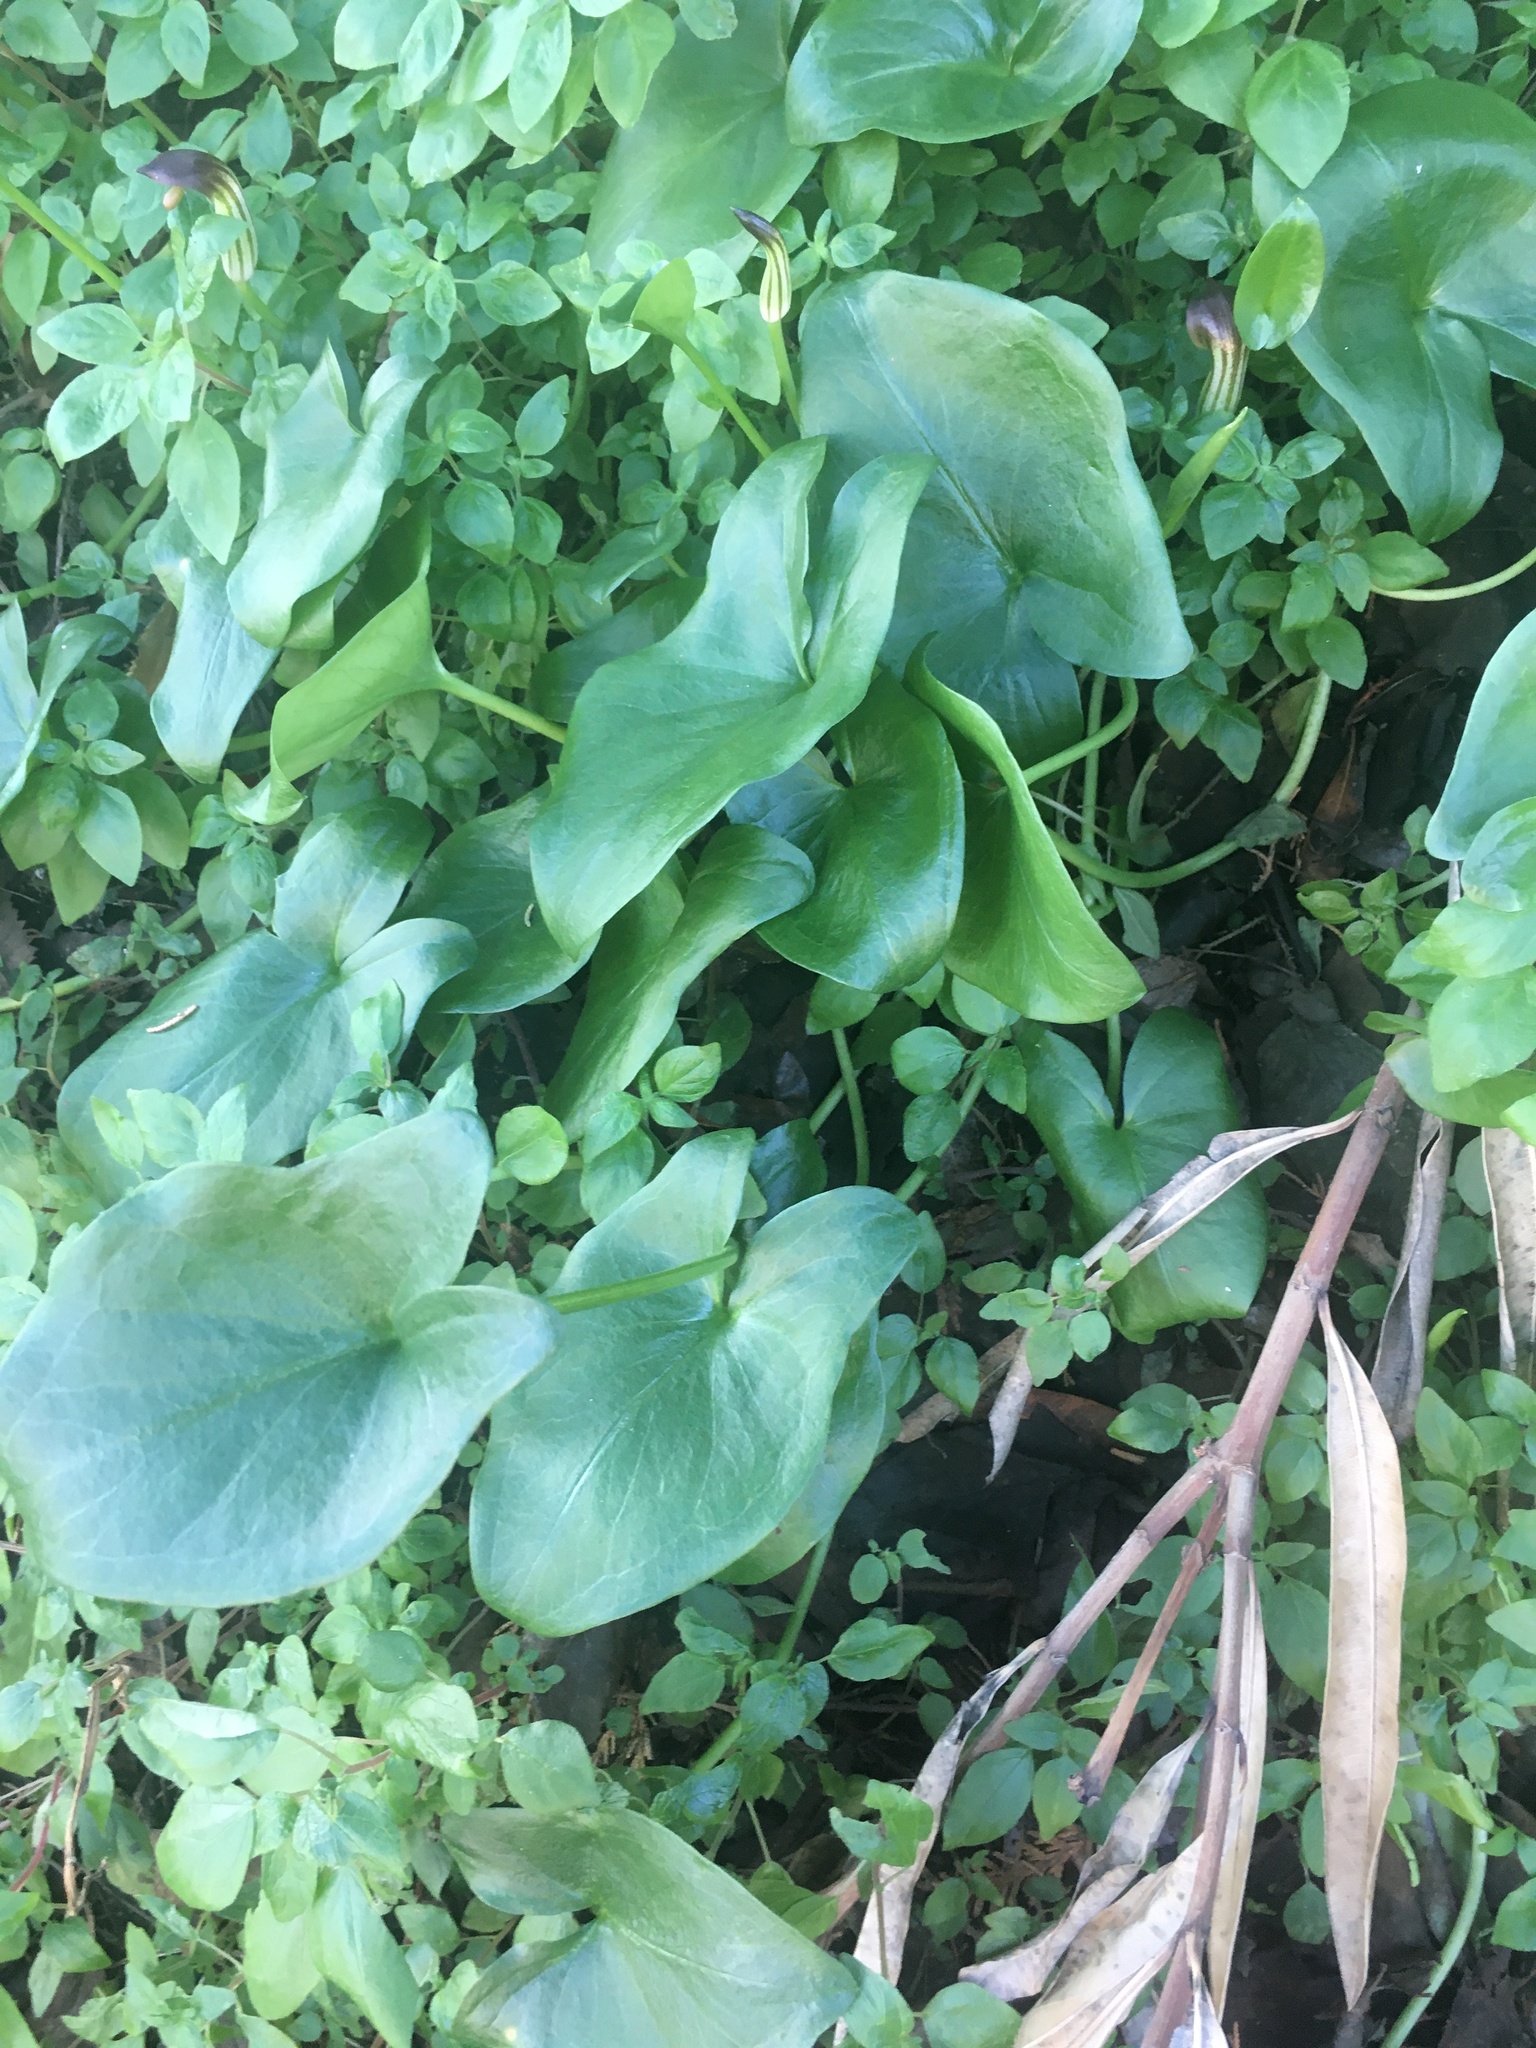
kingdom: Plantae
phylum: Tracheophyta
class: Liliopsida
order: Alismatales
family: Araceae
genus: Arisarum
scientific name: Arisarum vulgare
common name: Common arisarum
